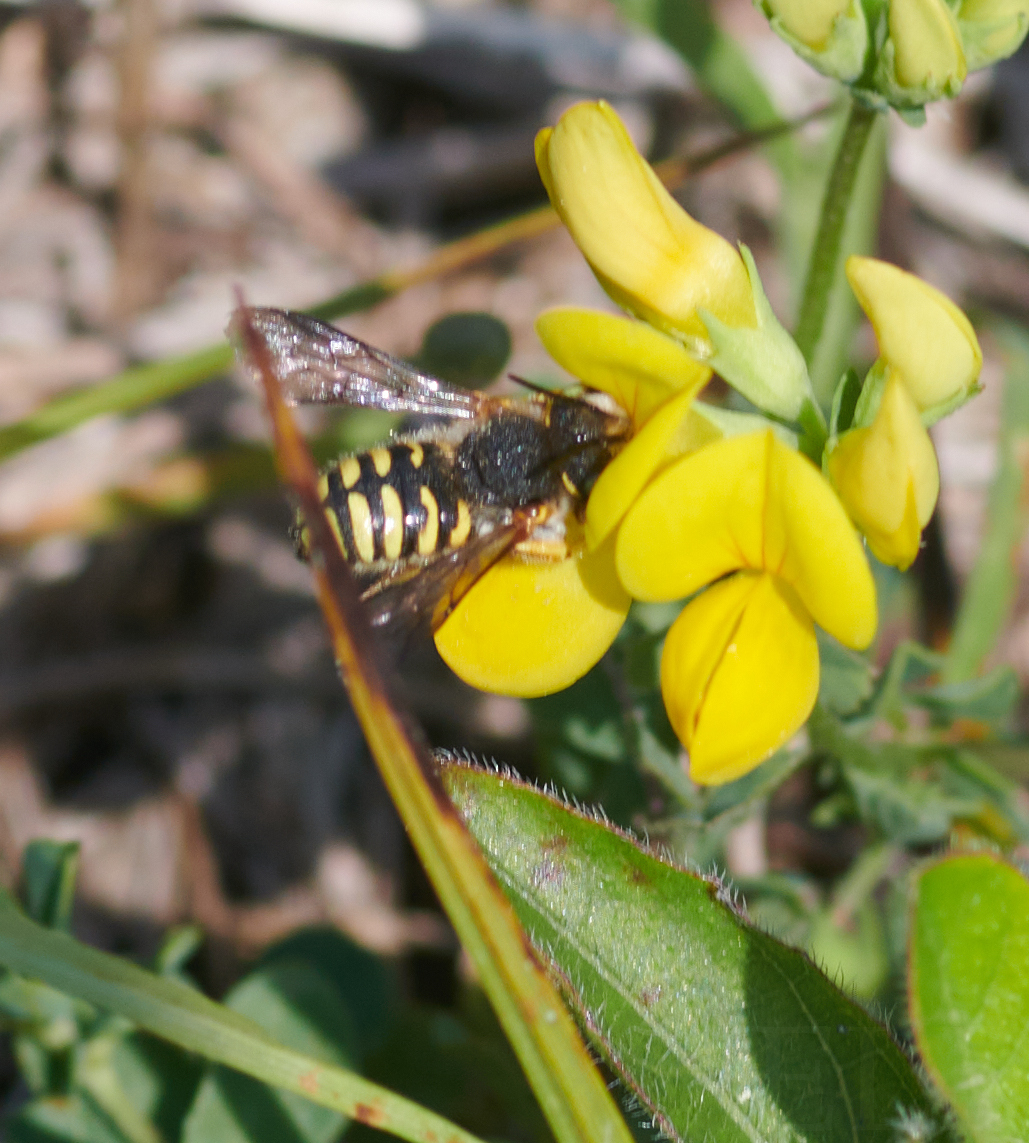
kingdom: Animalia
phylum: Arthropoda
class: Insecta
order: Hymenoptera
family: Megachilidae
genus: Anthidium
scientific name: Anthidium oblongatum
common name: Oblong wool carder bee
